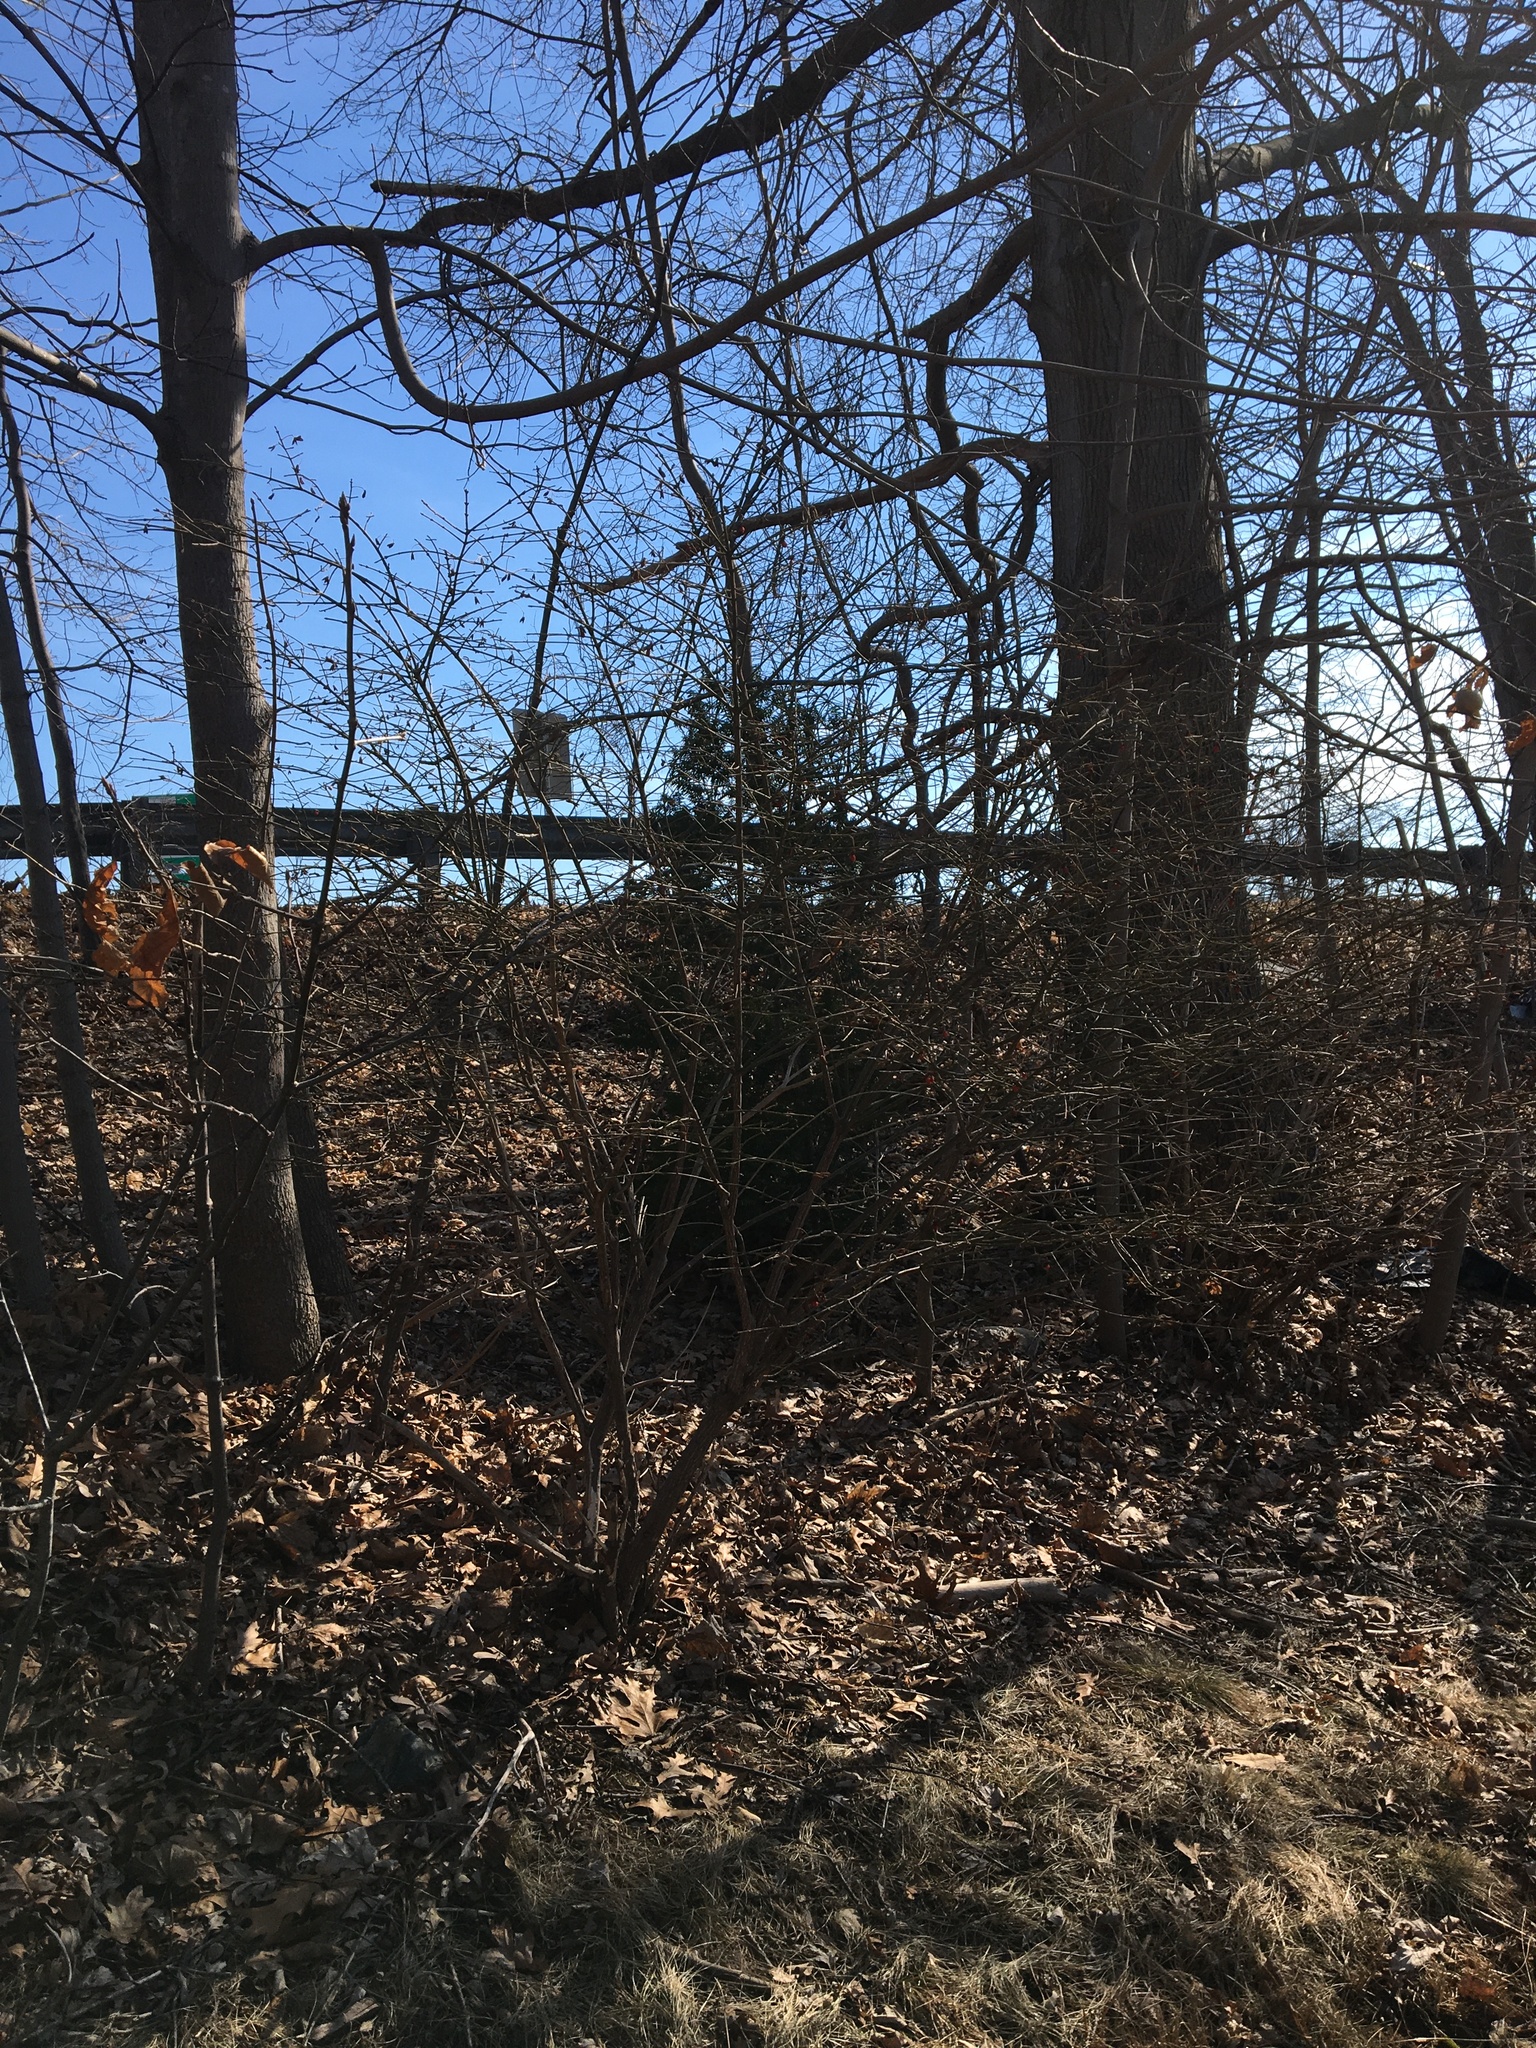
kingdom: Plantae
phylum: Tracheophyta
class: Magnoliopsida
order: Celastrales
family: Celastraceae
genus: Euonymus
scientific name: Euonymus alatus
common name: Winged euonymus
